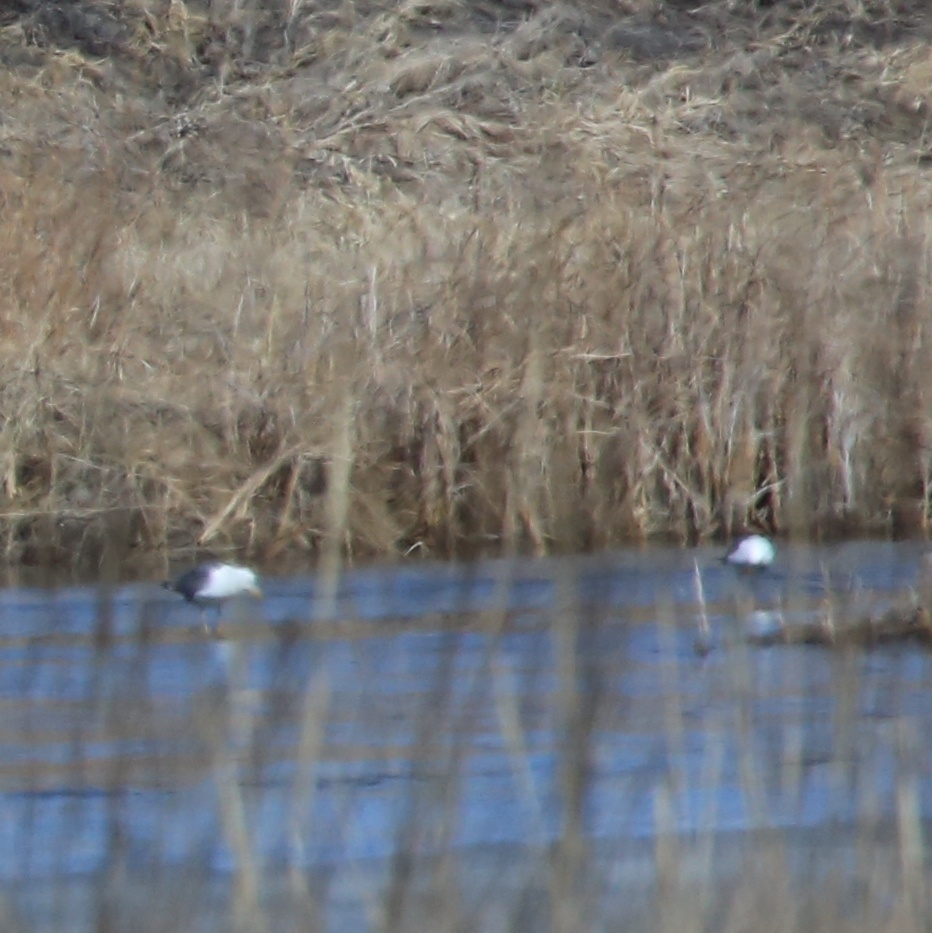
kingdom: Animalia
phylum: Chordata
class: Aves
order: Charadriiformes
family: Laridae
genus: Larus
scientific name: Larus fuscus
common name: Lesser black-backed gull
